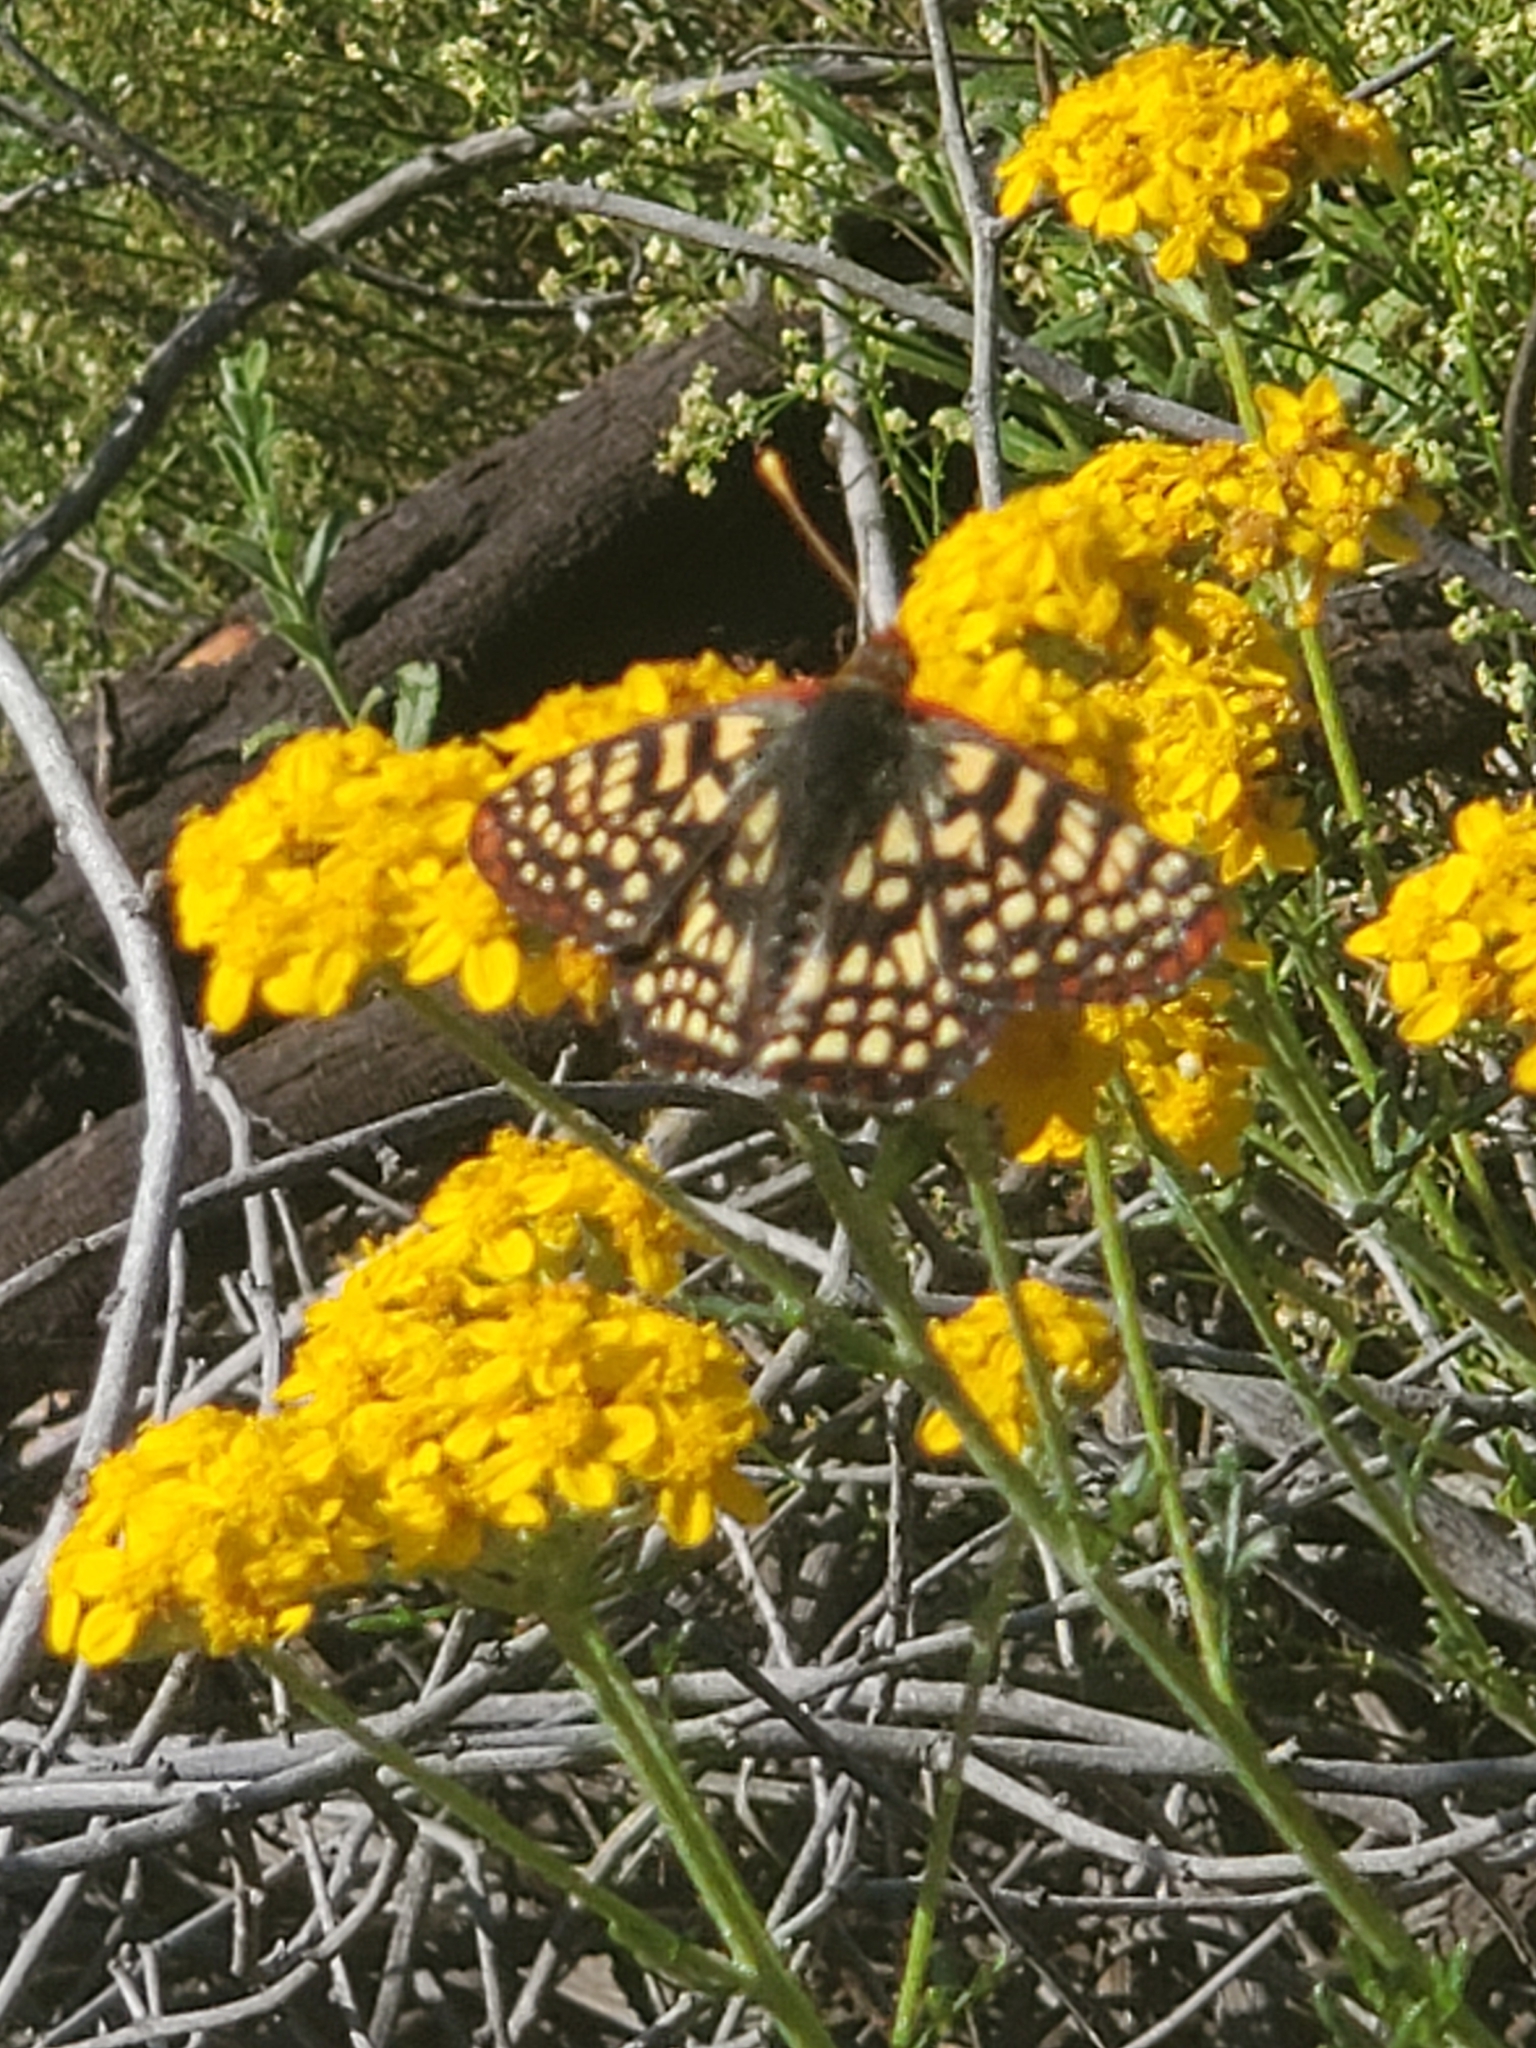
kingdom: Animalia
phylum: Arthropoda
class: Insecta
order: Lepidoptera
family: Nymphalidae
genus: Occidryas
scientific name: Occidryas chalcedona
